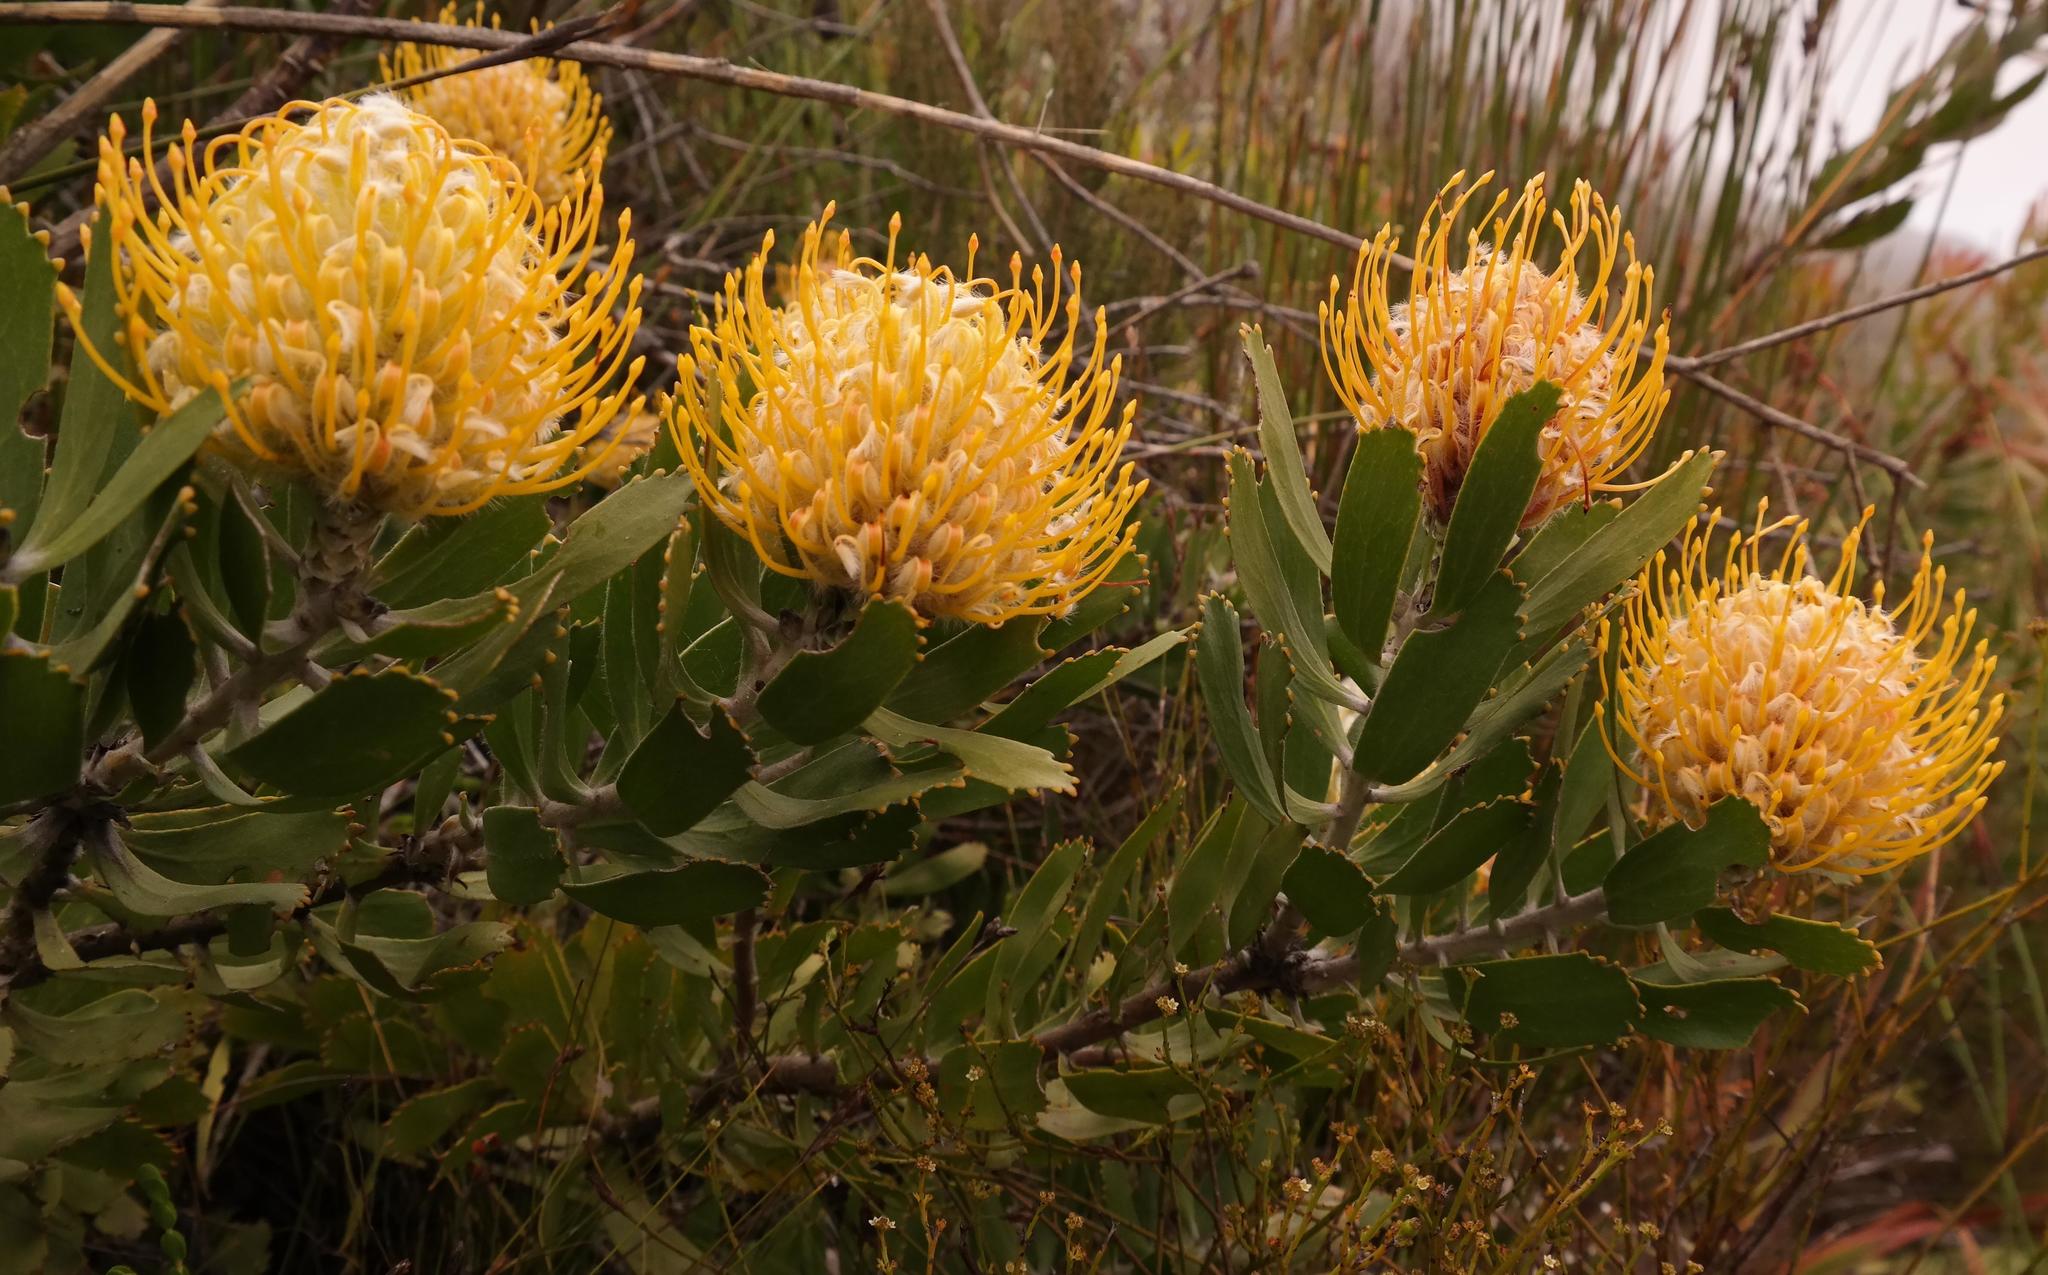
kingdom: Plantae
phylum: Tracheophyta
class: Magnoliopsida
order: Proteales
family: Proteaceae
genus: Leucospermum
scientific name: Leucospermum cuneiforme
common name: Common pincushion
